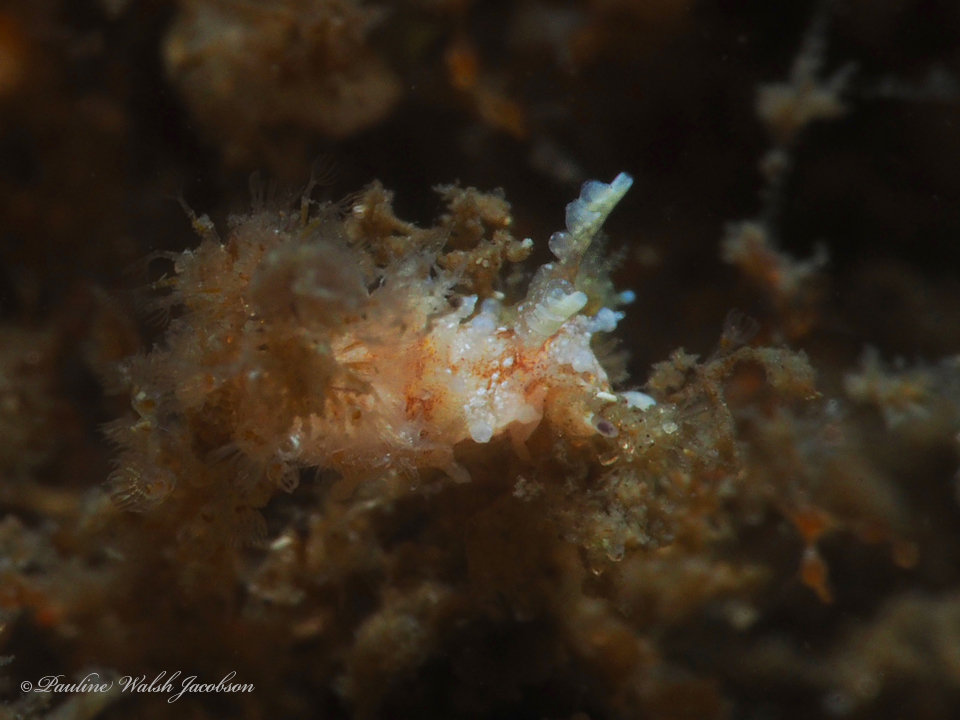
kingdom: Animalia
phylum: Mollusca
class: Gastropoda
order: Nudibranchia
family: Goniodorididae
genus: Okenia
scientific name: Okenia zoobotryon
